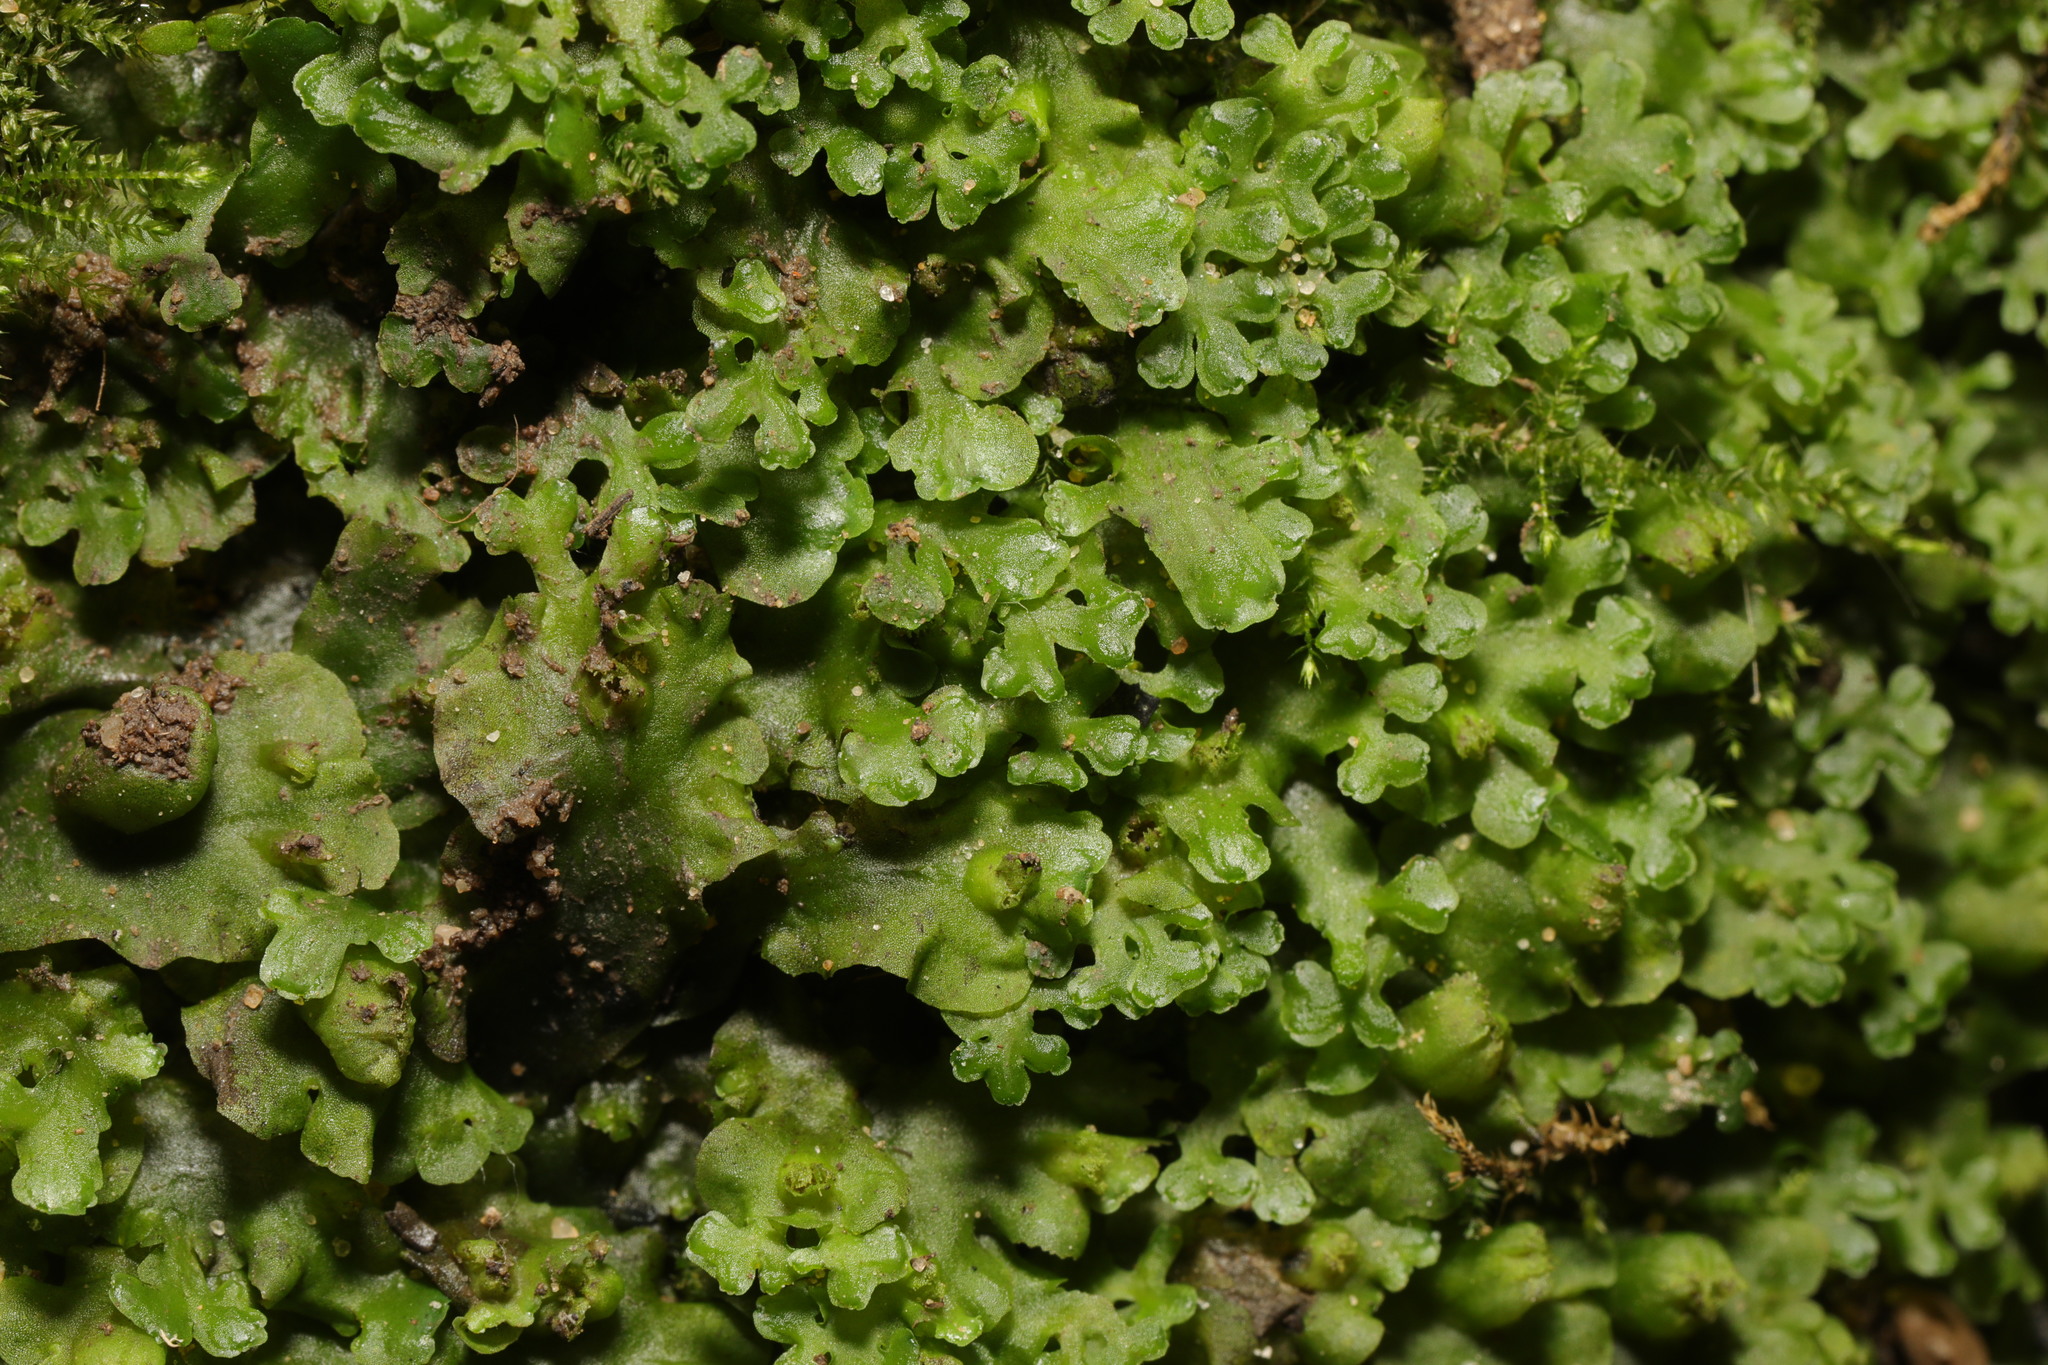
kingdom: Plantae
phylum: Marchantiophyta
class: Jungermanniopsida
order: Pelliales
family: Pelliaceae
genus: Apopellia
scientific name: Apopellia endiviifolia
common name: Endive pellia
